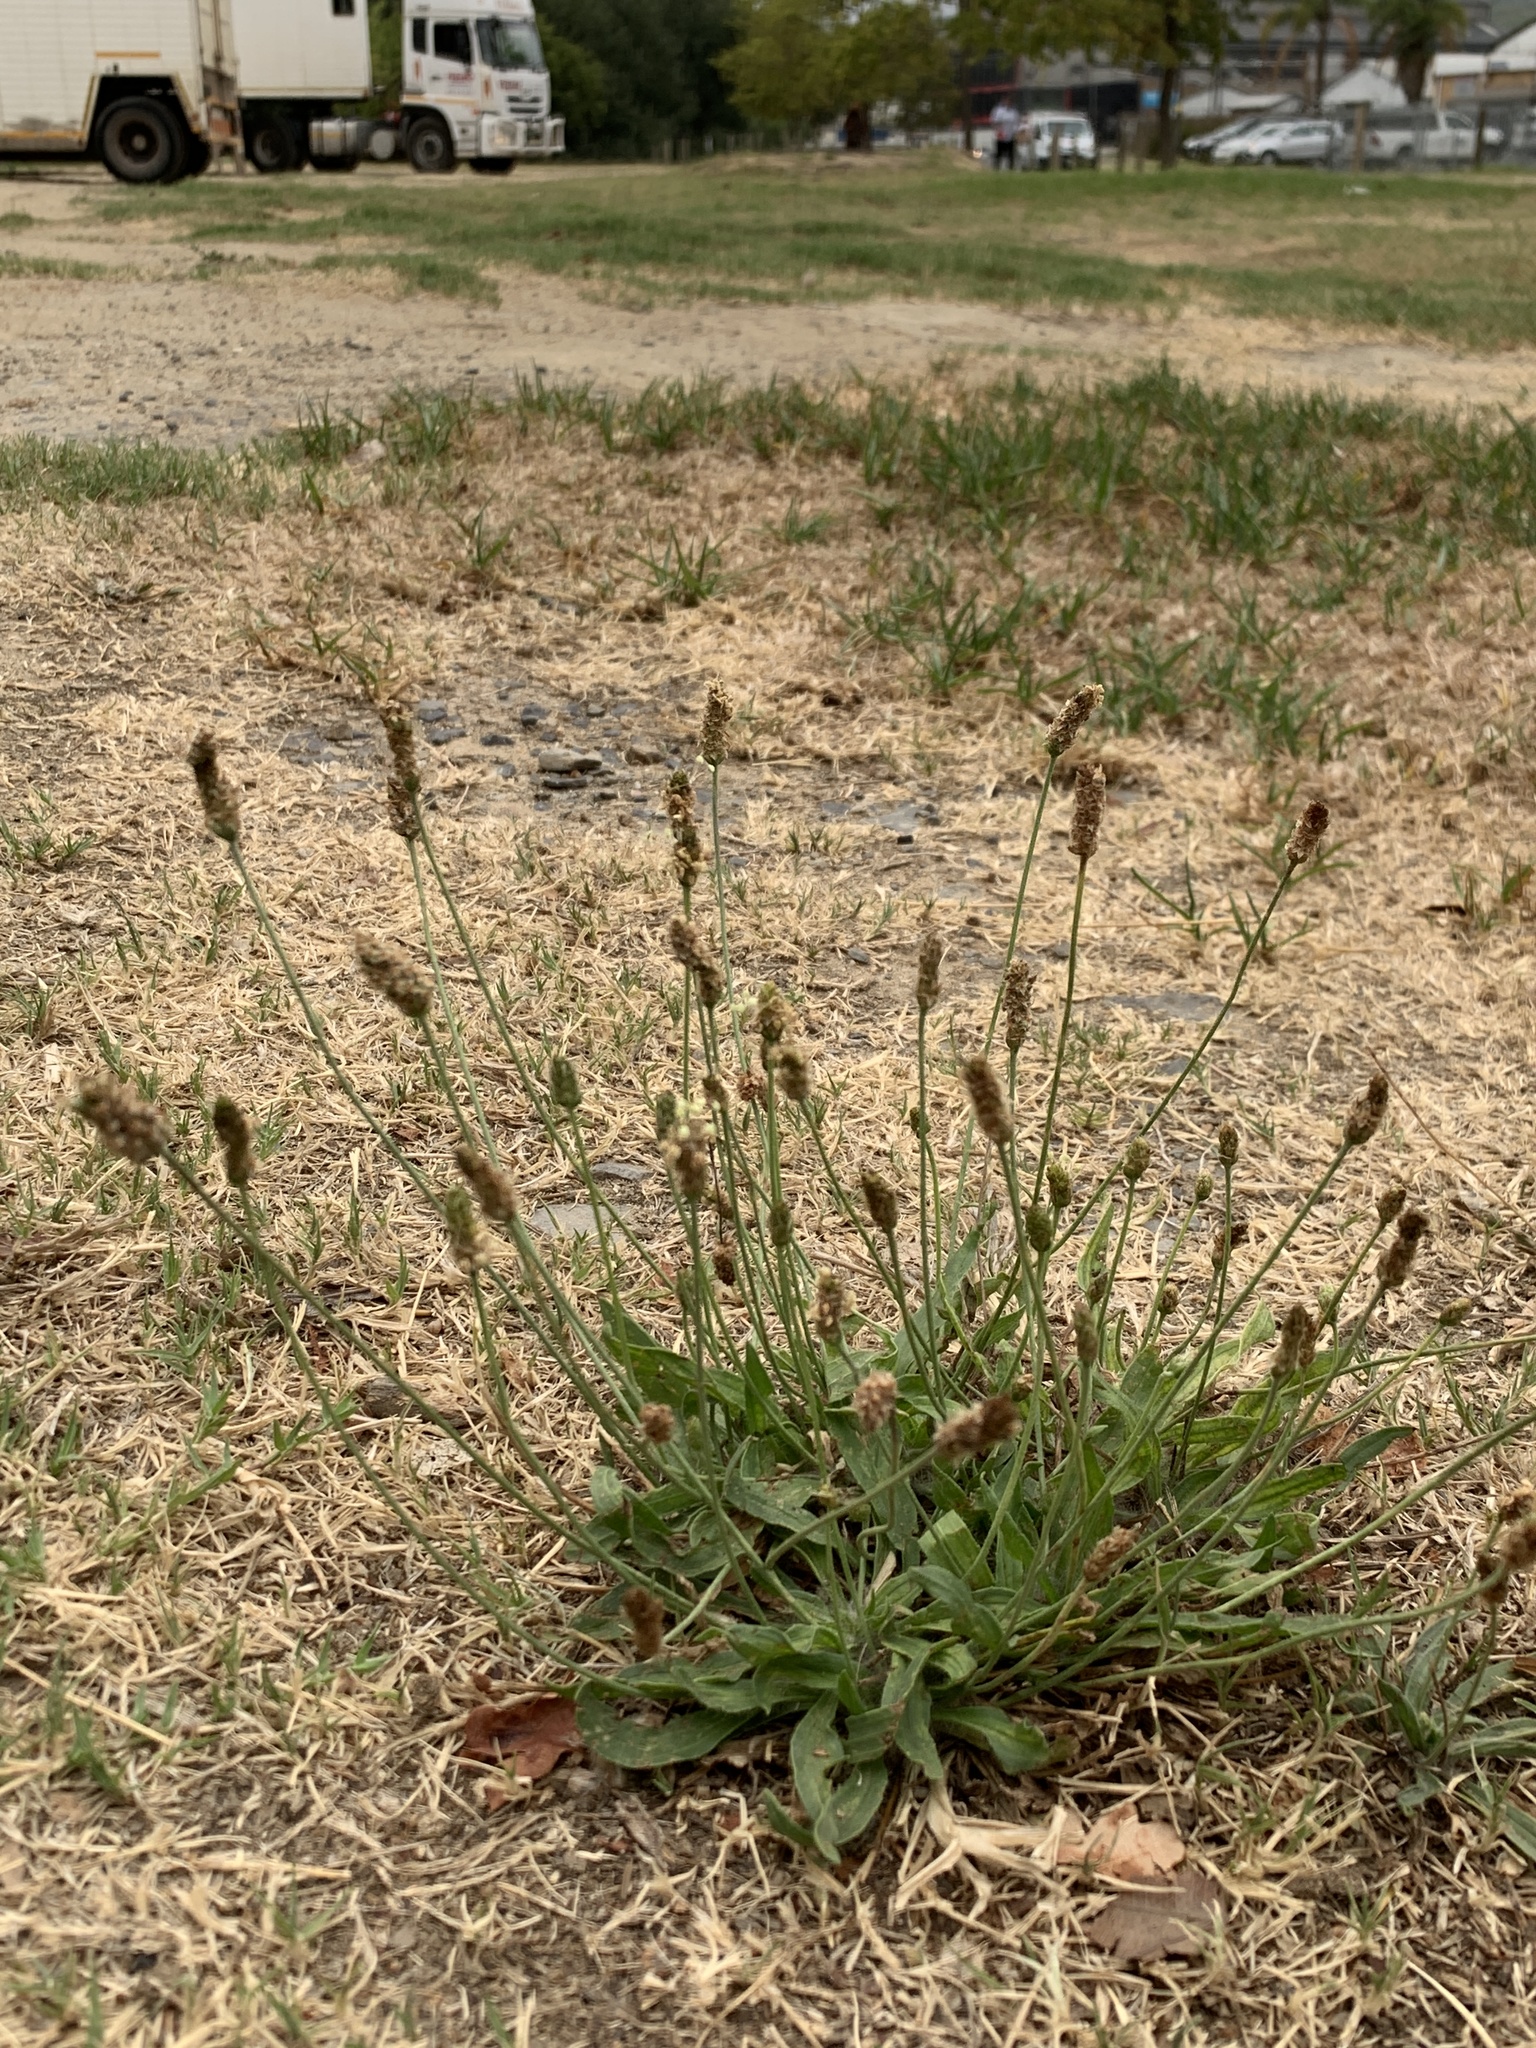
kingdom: Plantae
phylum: Tracheophyta
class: Magnoliopsida
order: Lamiales
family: Plantaginaceae
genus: Plantago
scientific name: Plantago lanceolata
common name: Ribwort plantain
